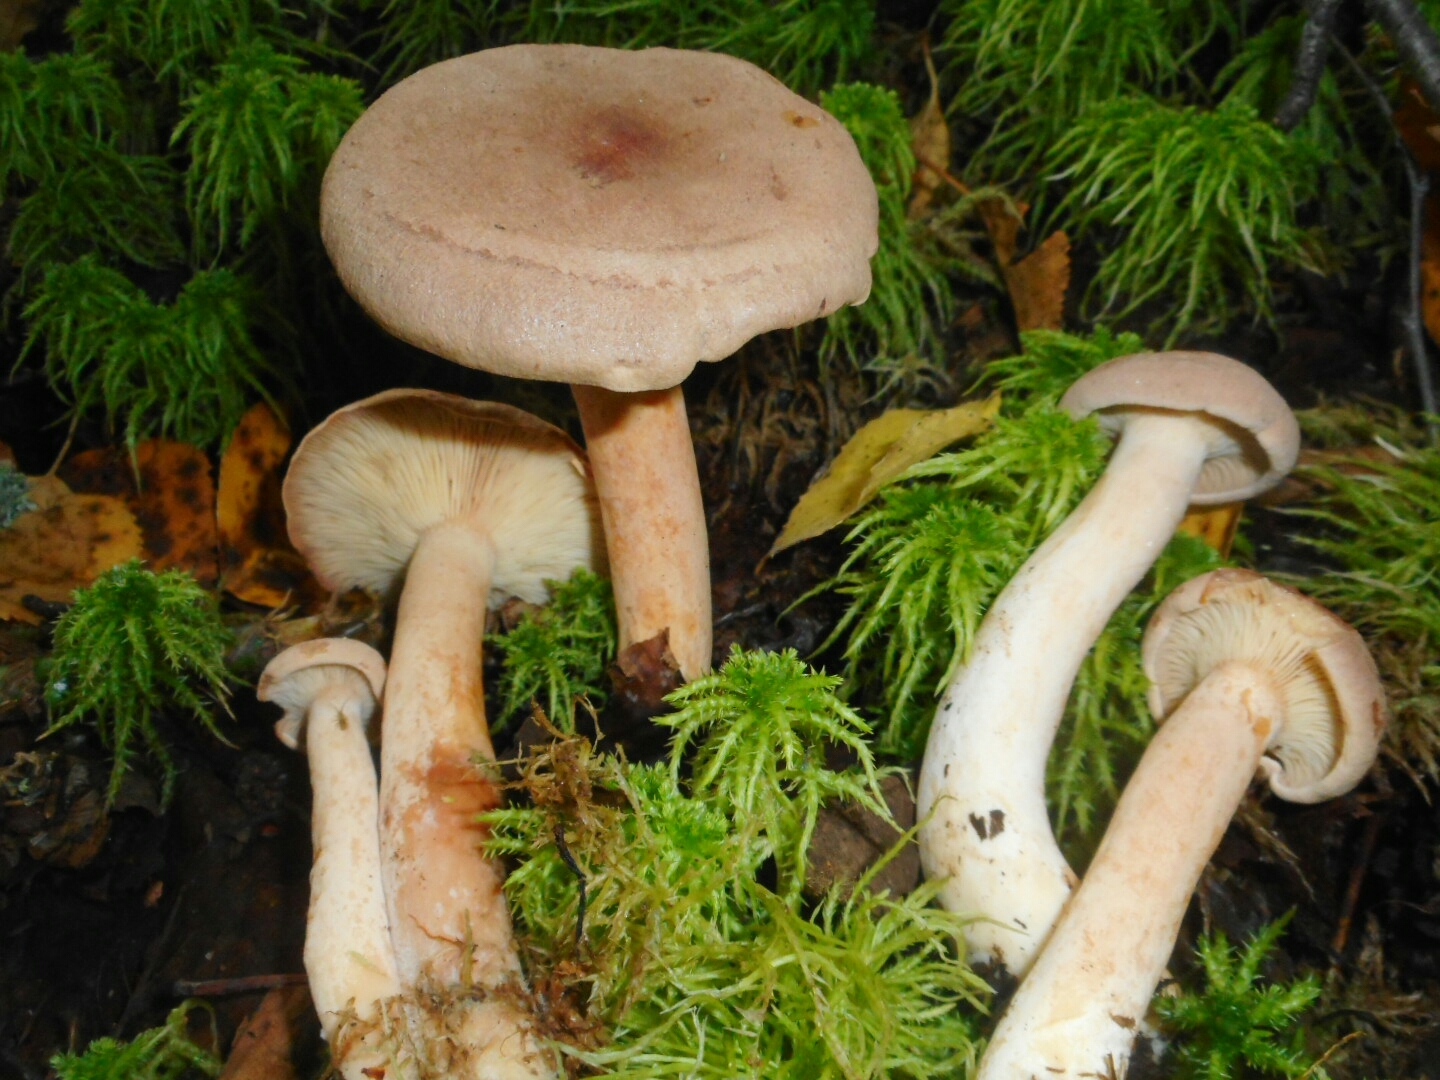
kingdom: Fungi
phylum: Basidiomycota
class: Agaricomycetes
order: Russulales
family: Russulaceae
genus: Lactarius
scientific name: Lactarius helvus
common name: Fenugreek milkcap
